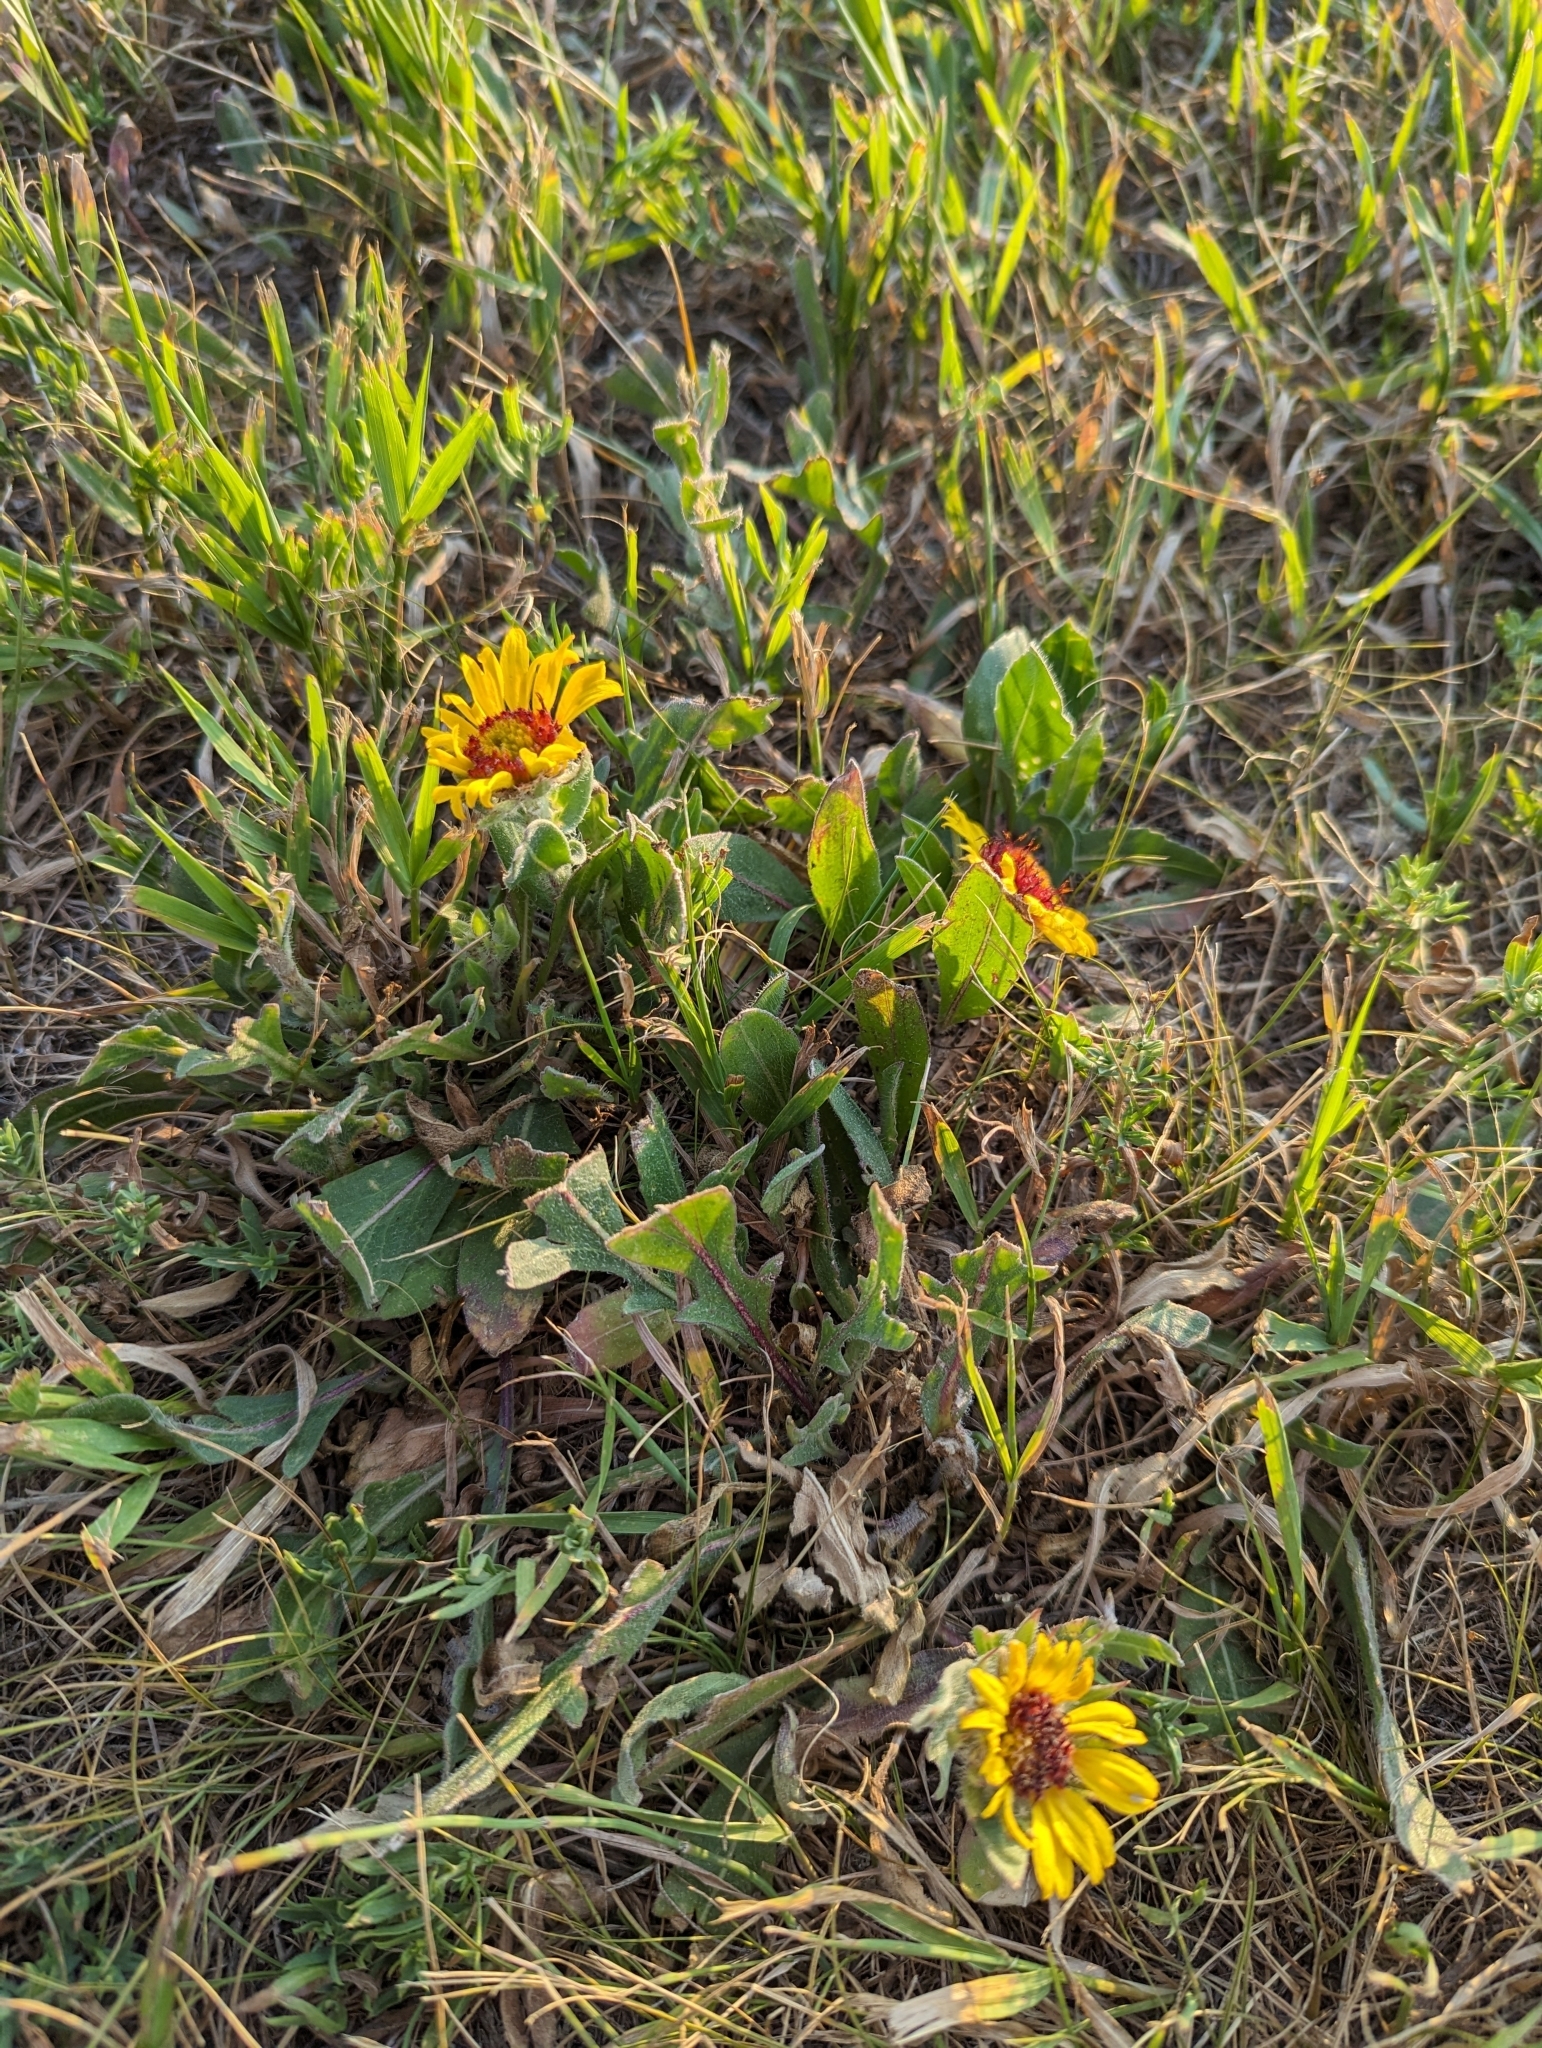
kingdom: Plantae
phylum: Tracheophyta
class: Magnoliopsida
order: Asterales
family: Asteraceae
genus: Gaillardia
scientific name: Gaillardia aristata
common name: Blanket-flower
